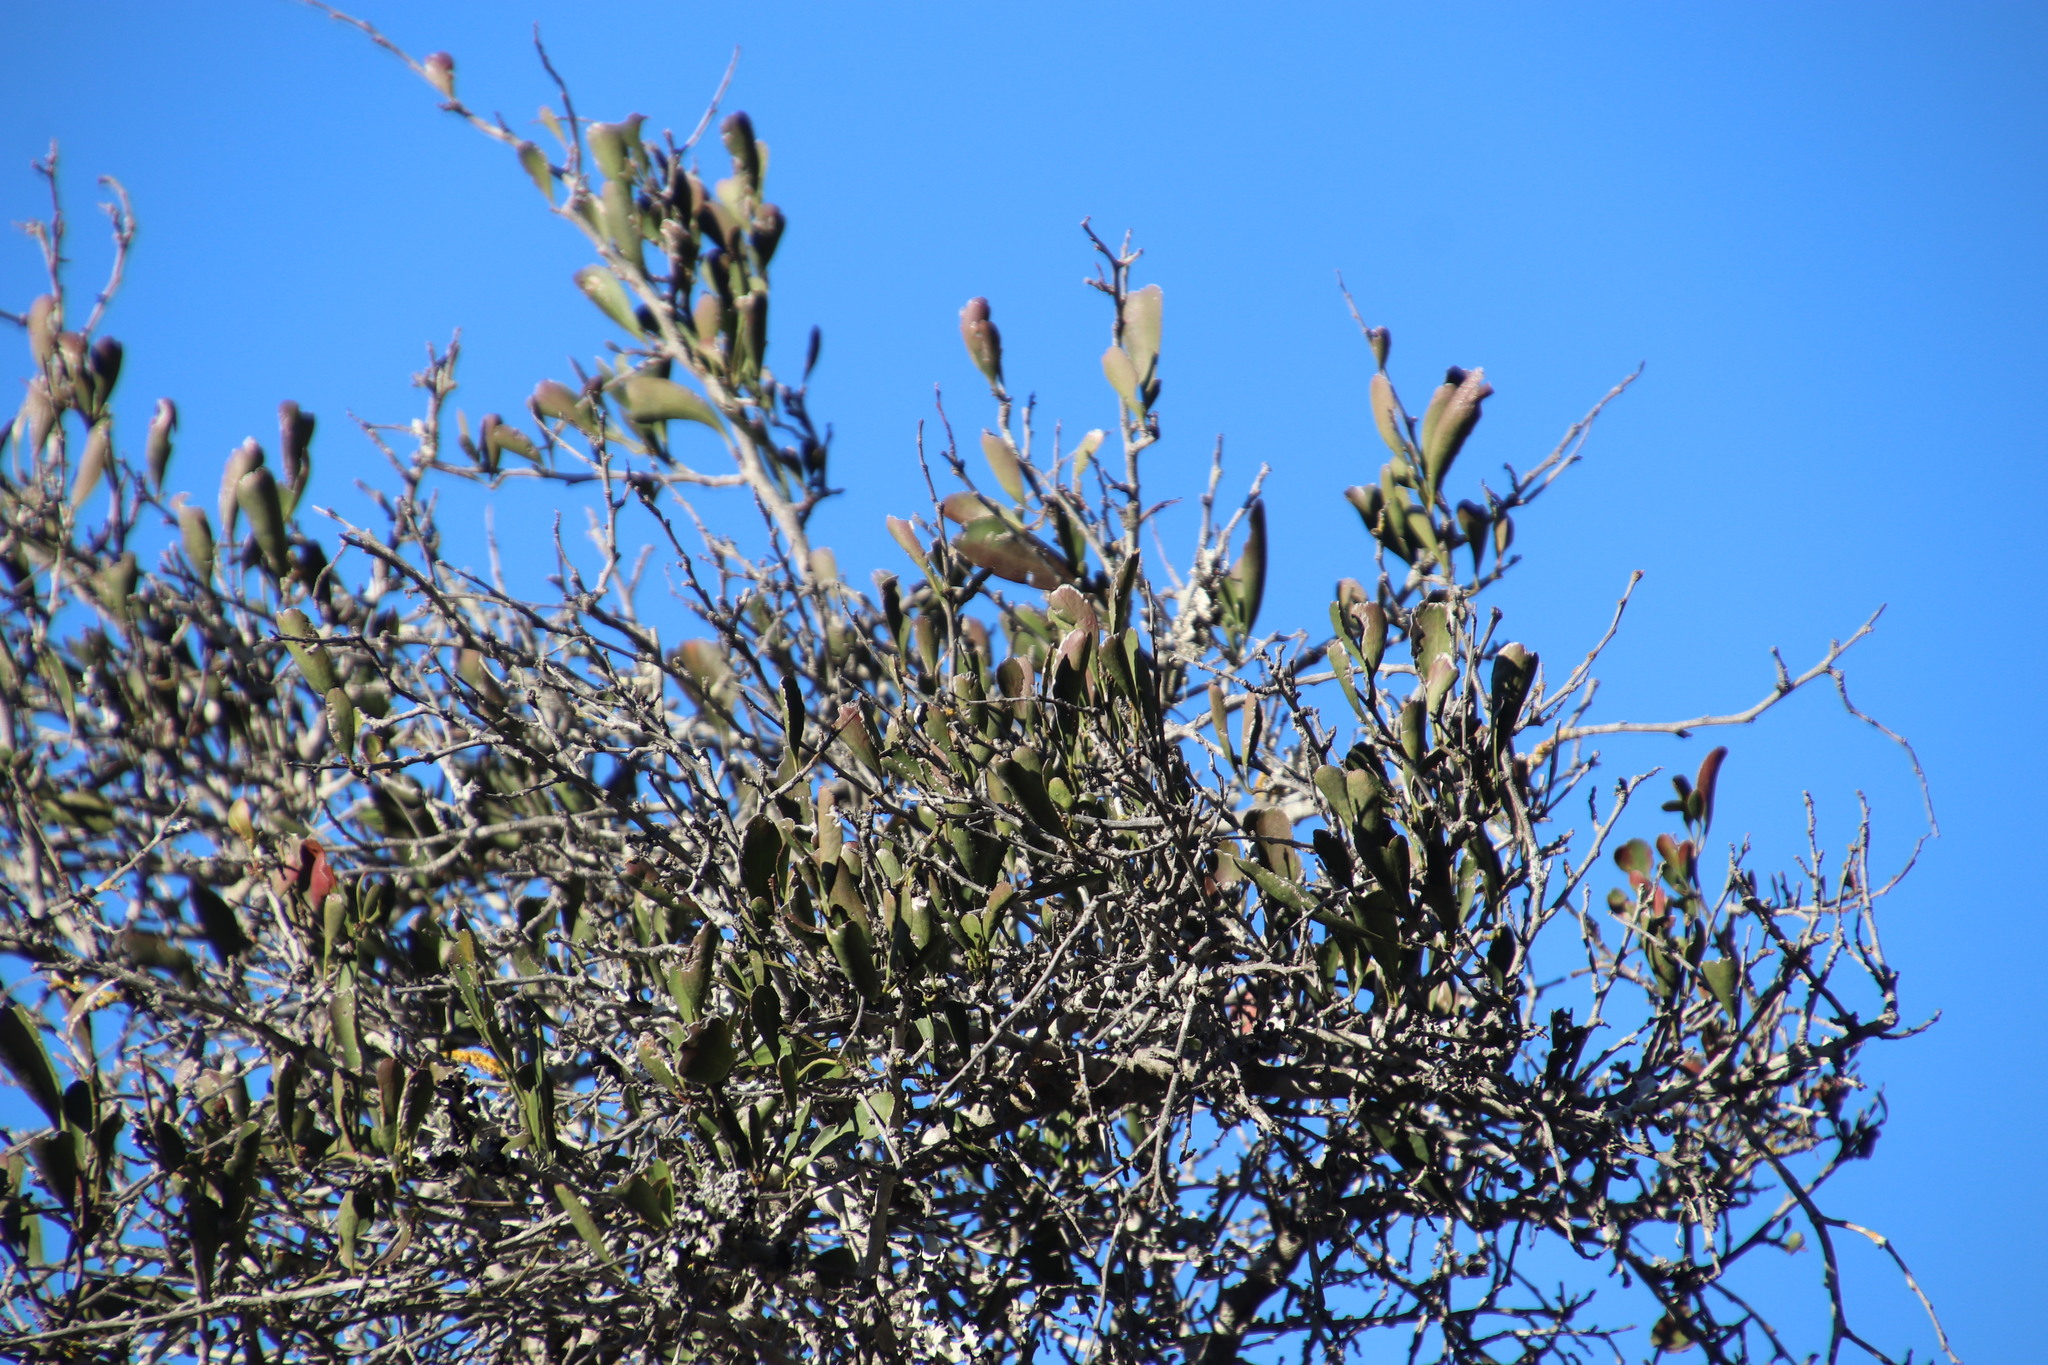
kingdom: Plantae
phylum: Tracheophyta
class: Magnoliopsida
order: Celastrales
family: Celastraceae
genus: Gymnosporia
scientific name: Gymnosporia buxifolia
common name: Common spike-thorn
